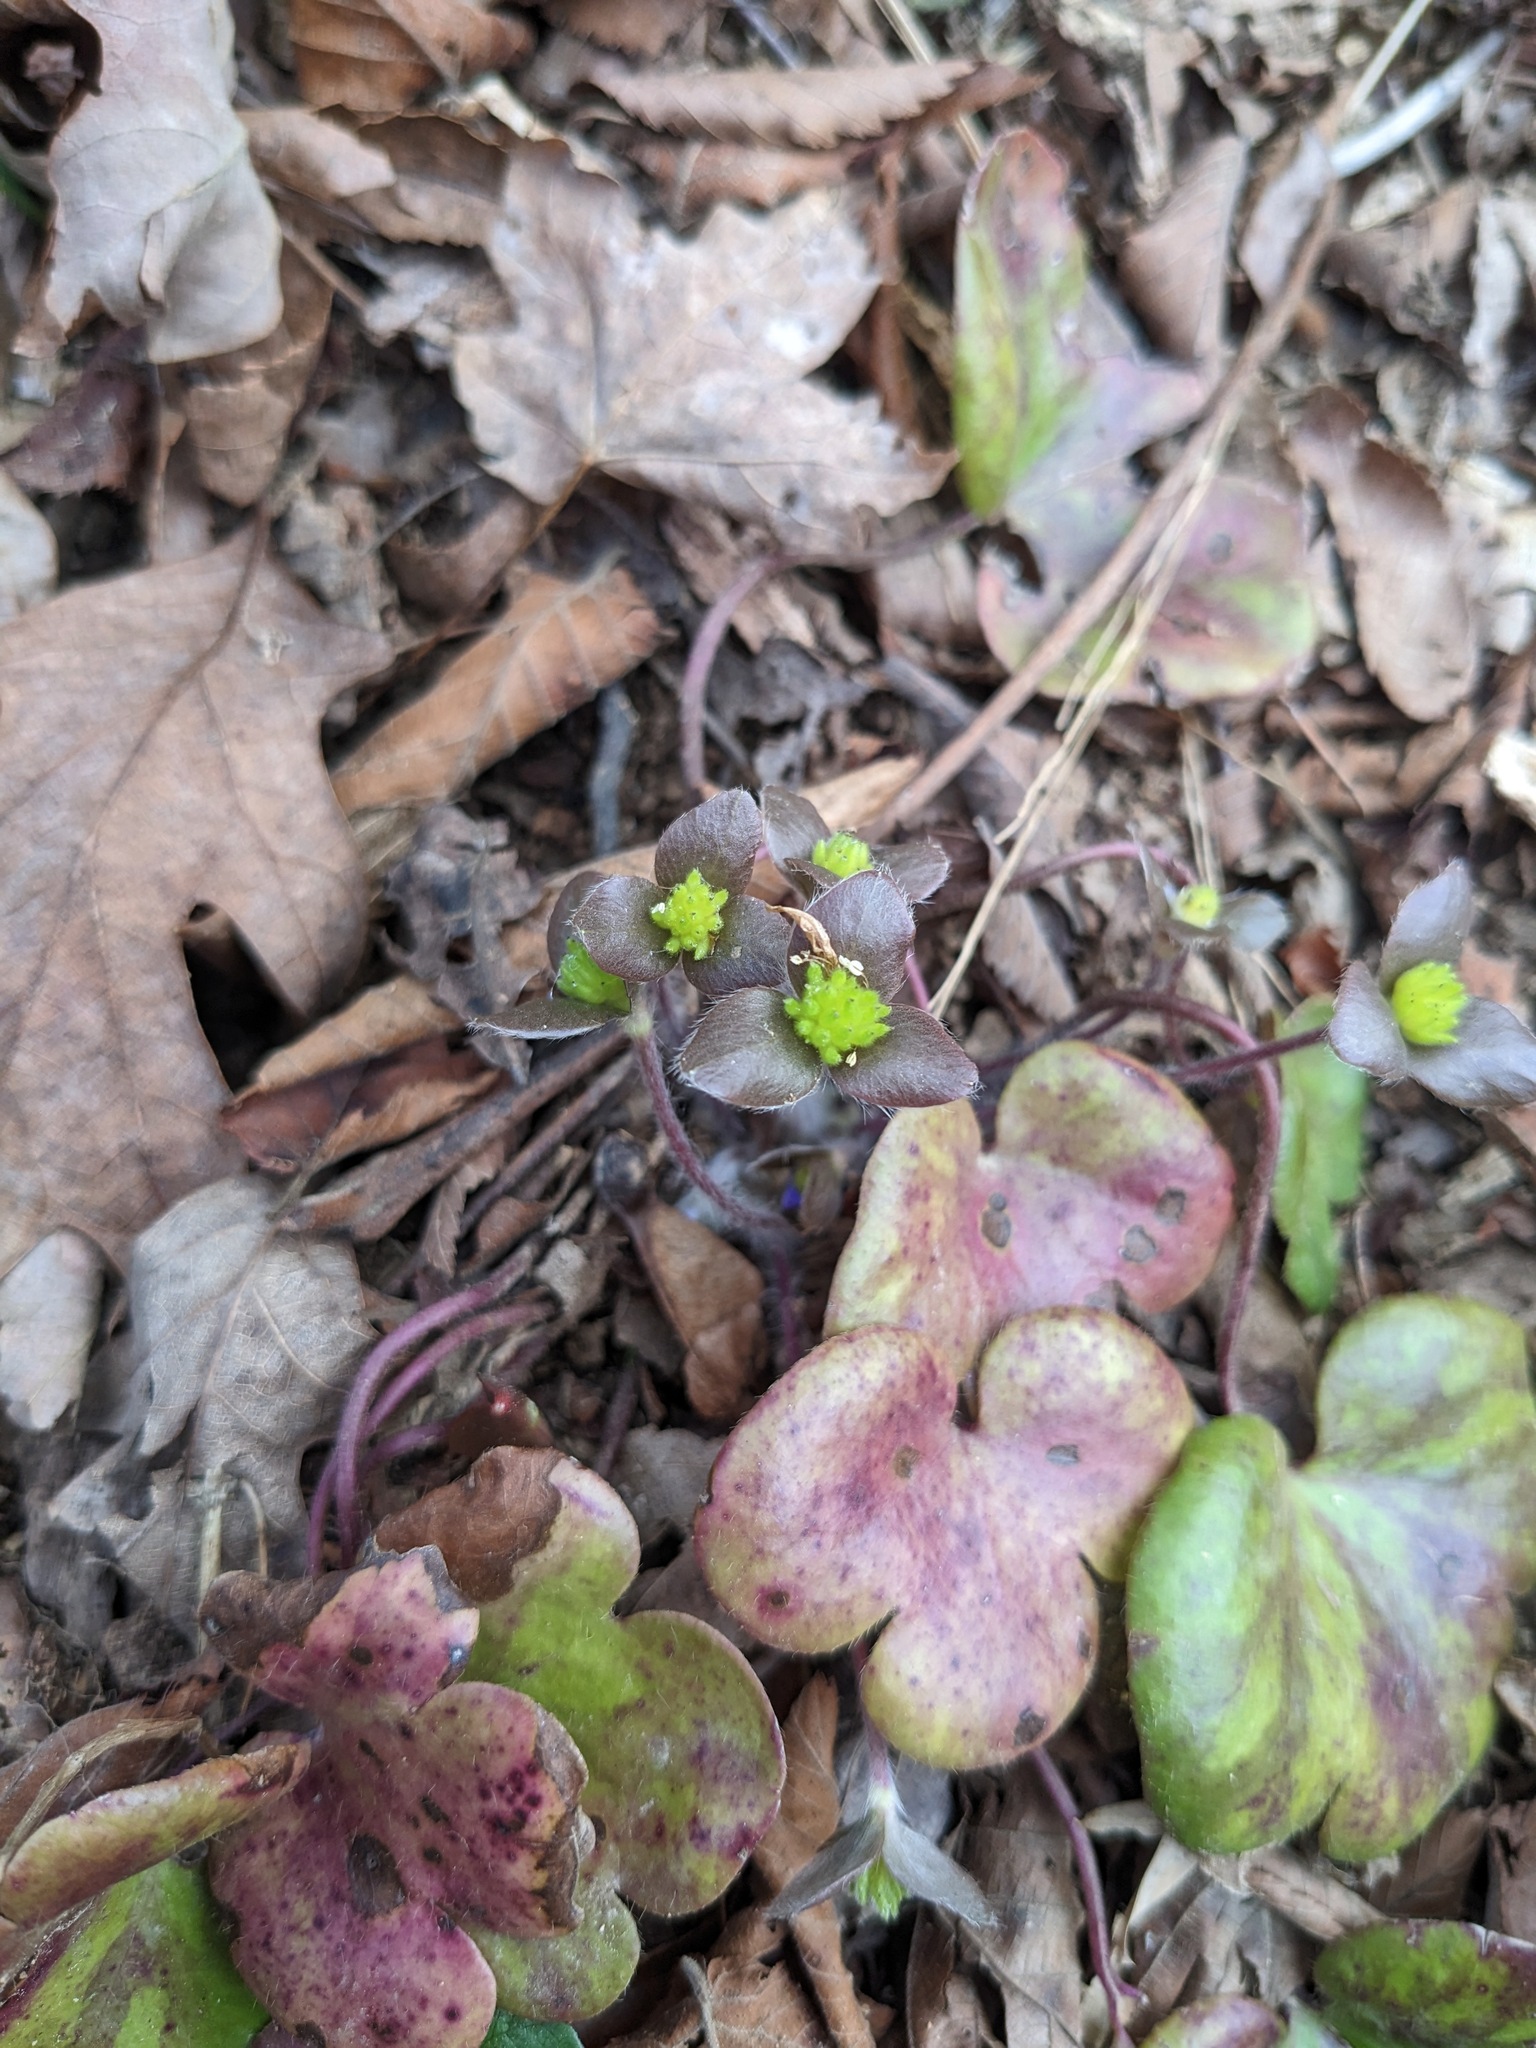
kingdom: Plantae
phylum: Tracheophyta
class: Magnoliopsida
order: Ranunculales
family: Ranunculaceae
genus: Hepatica
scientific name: Hepatica americana
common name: American hepatica
